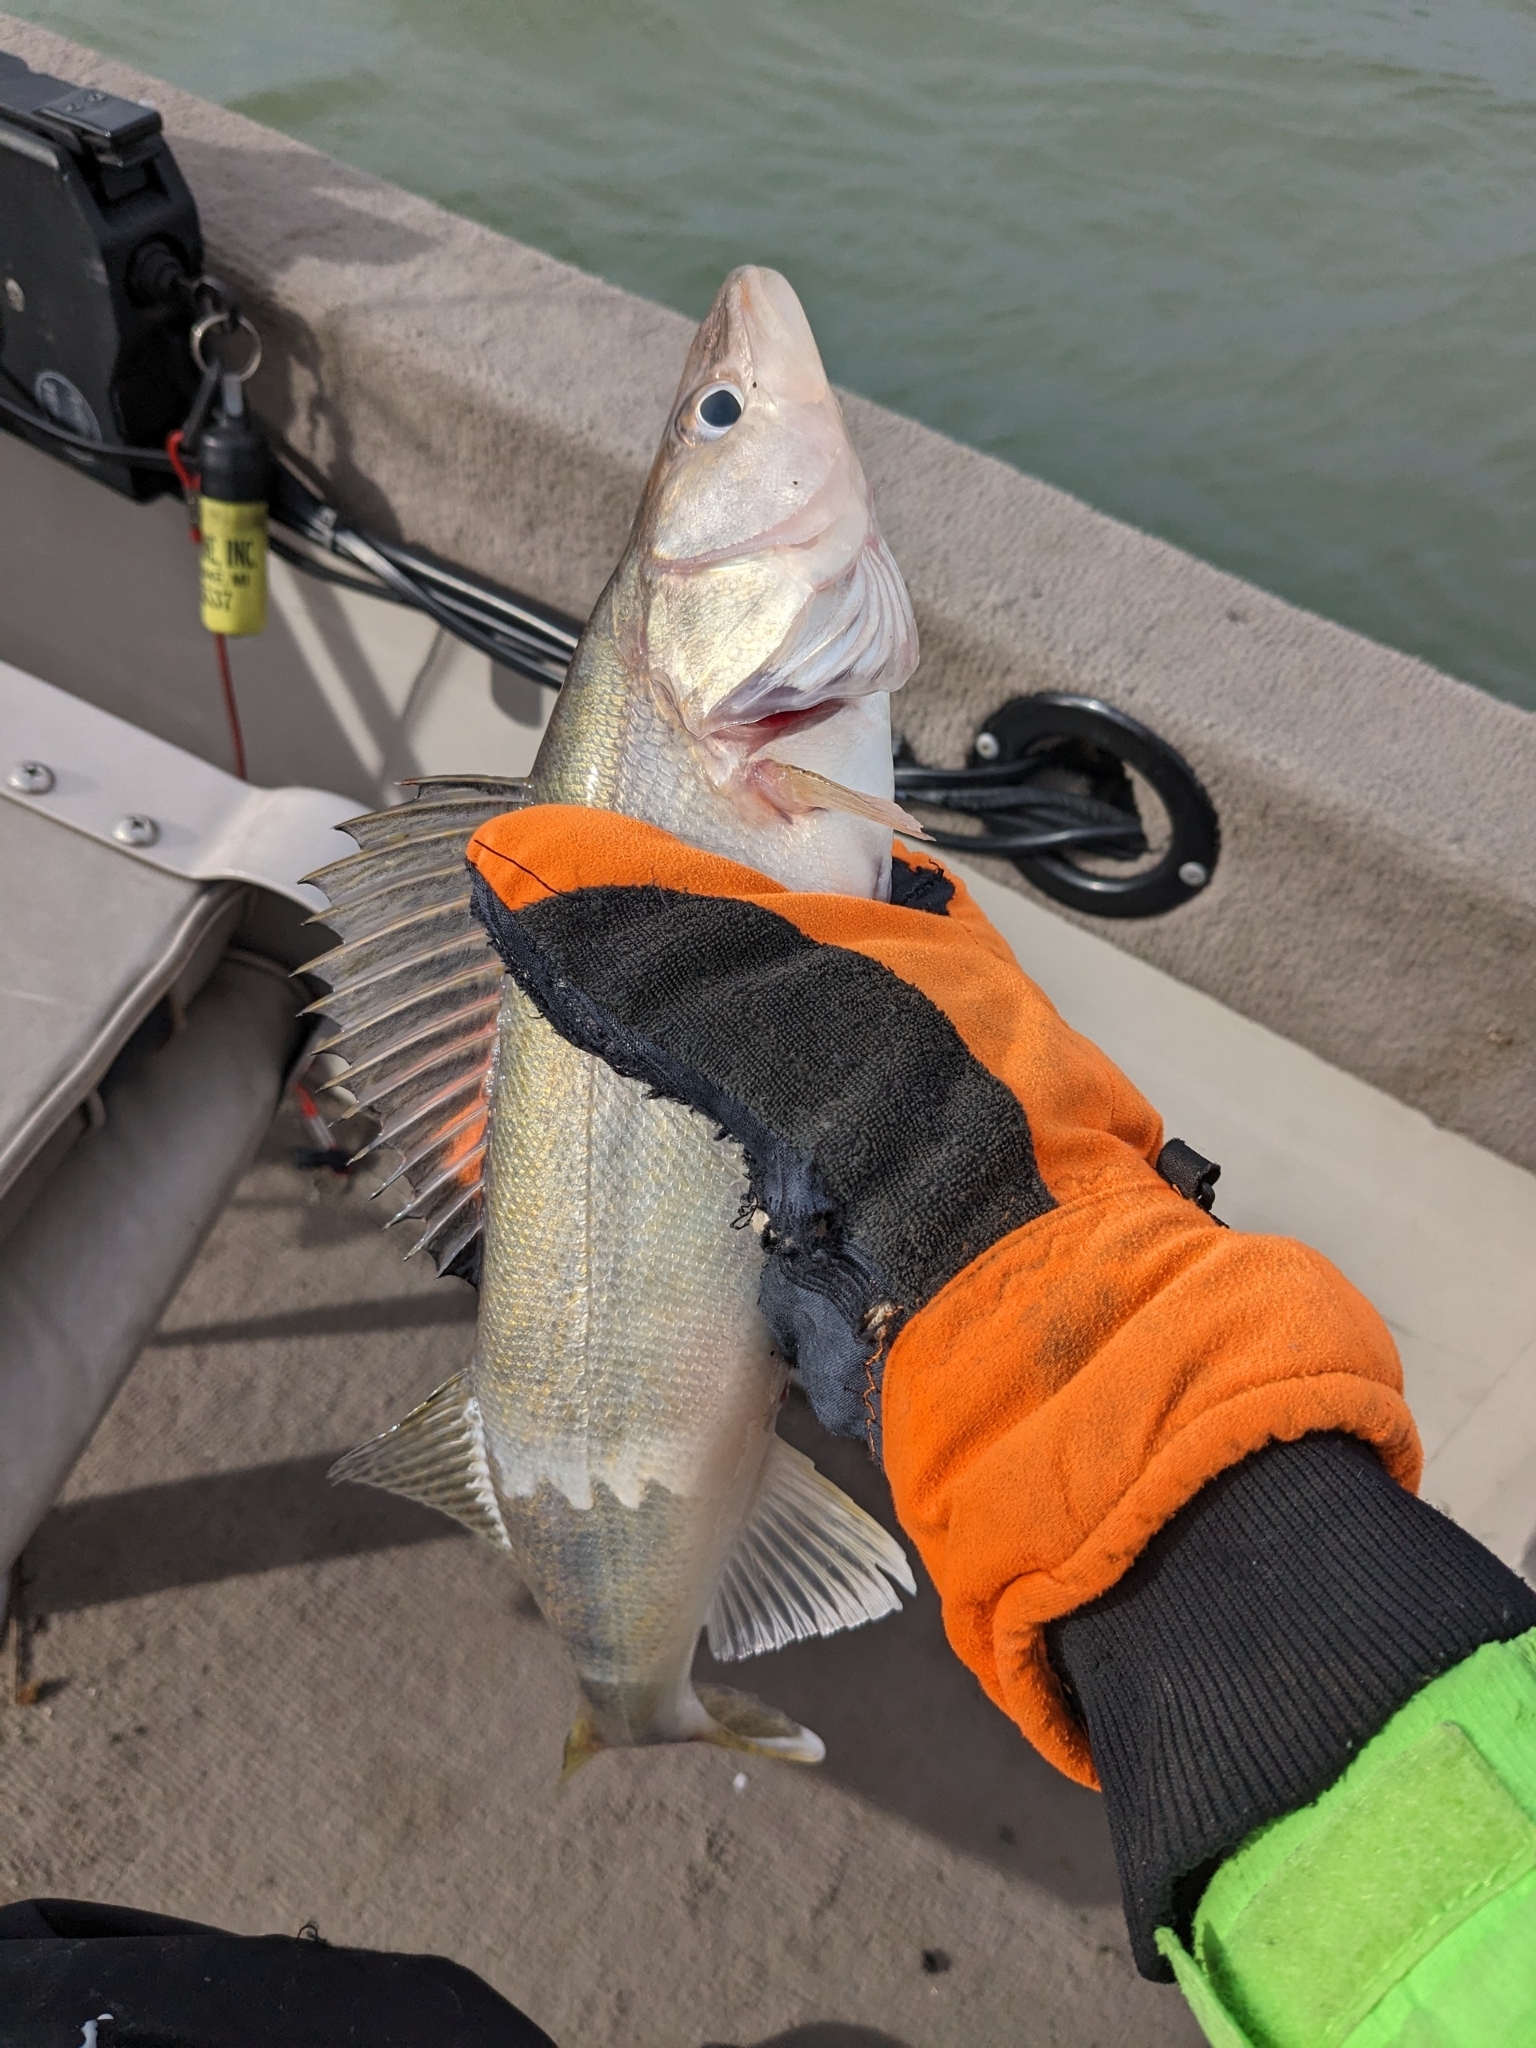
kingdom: Animalia
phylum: Chordata
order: Perciformes
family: Percidae
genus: Sander
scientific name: Sander vitreus
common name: Walleye
